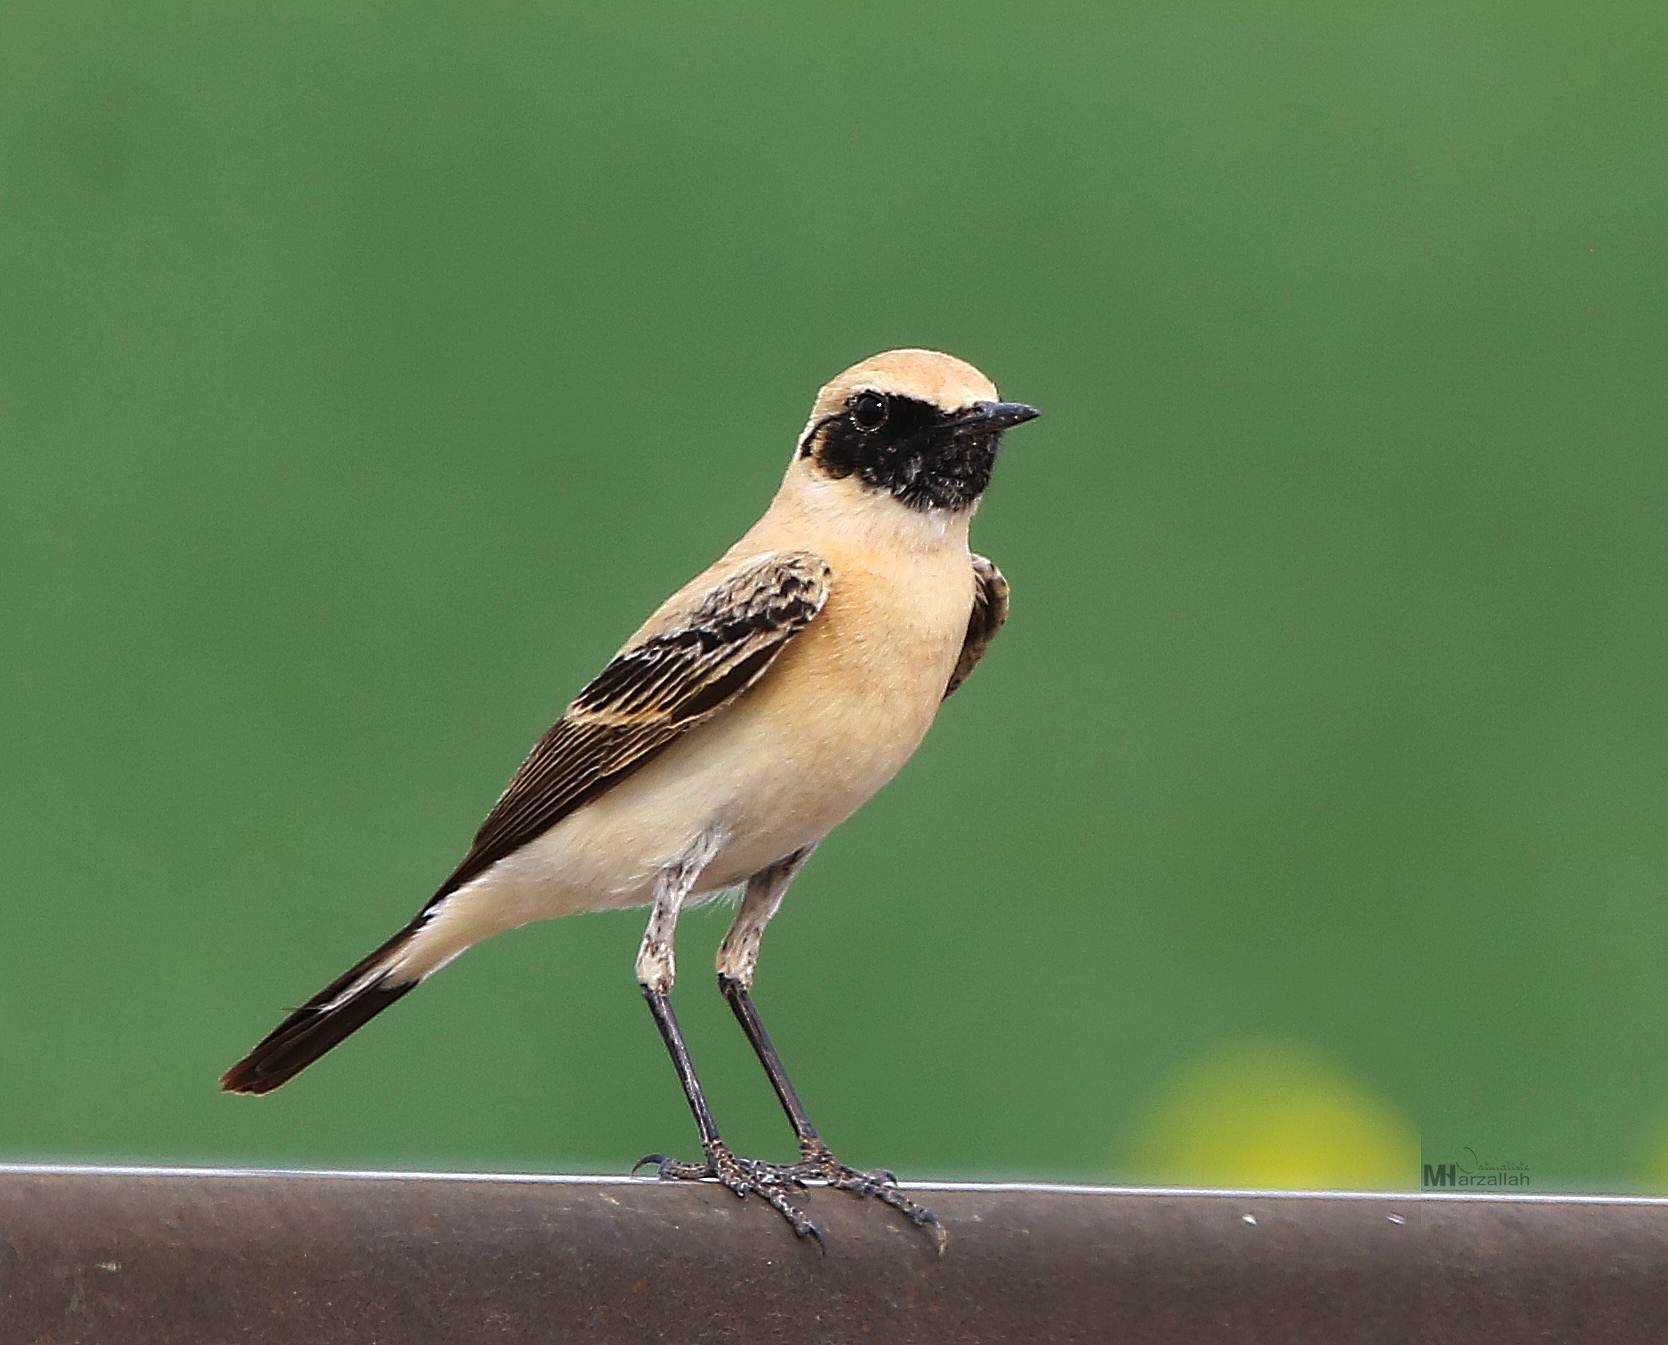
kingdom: Animalia
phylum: Chordata
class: Aves
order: Passeriformes
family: Muscicapidae
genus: Oenanthe
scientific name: Oenanthe hispanica
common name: Black-eared wheatear
